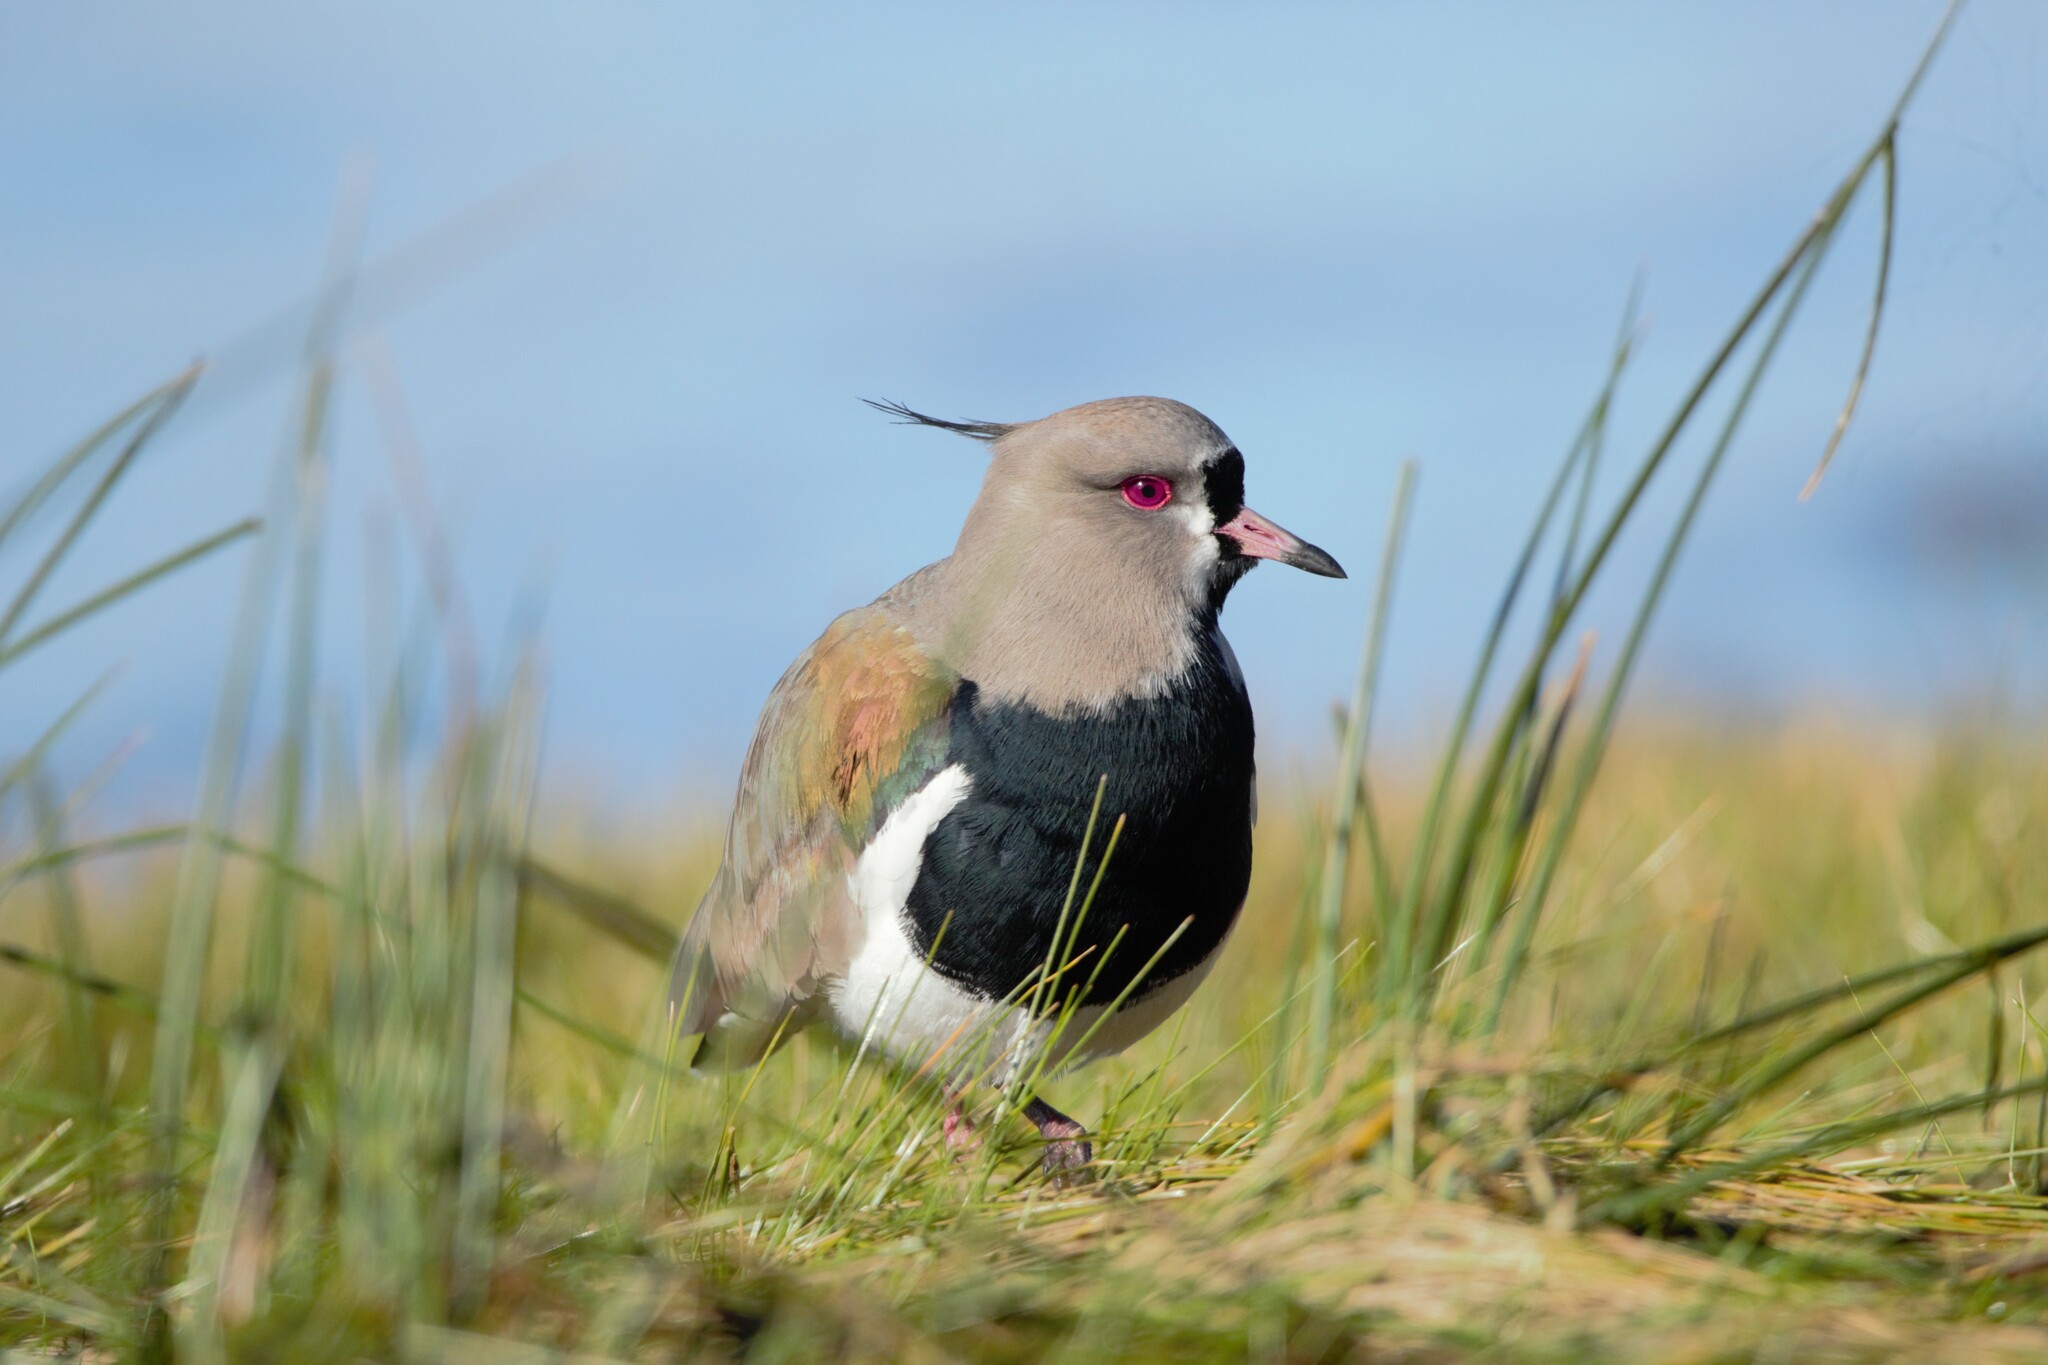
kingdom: Animalia
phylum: Chordata
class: Aves
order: Charadriiformes
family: Charadriidae
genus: Vanellus
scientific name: Vanellus chilensis
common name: Southern lapwing
